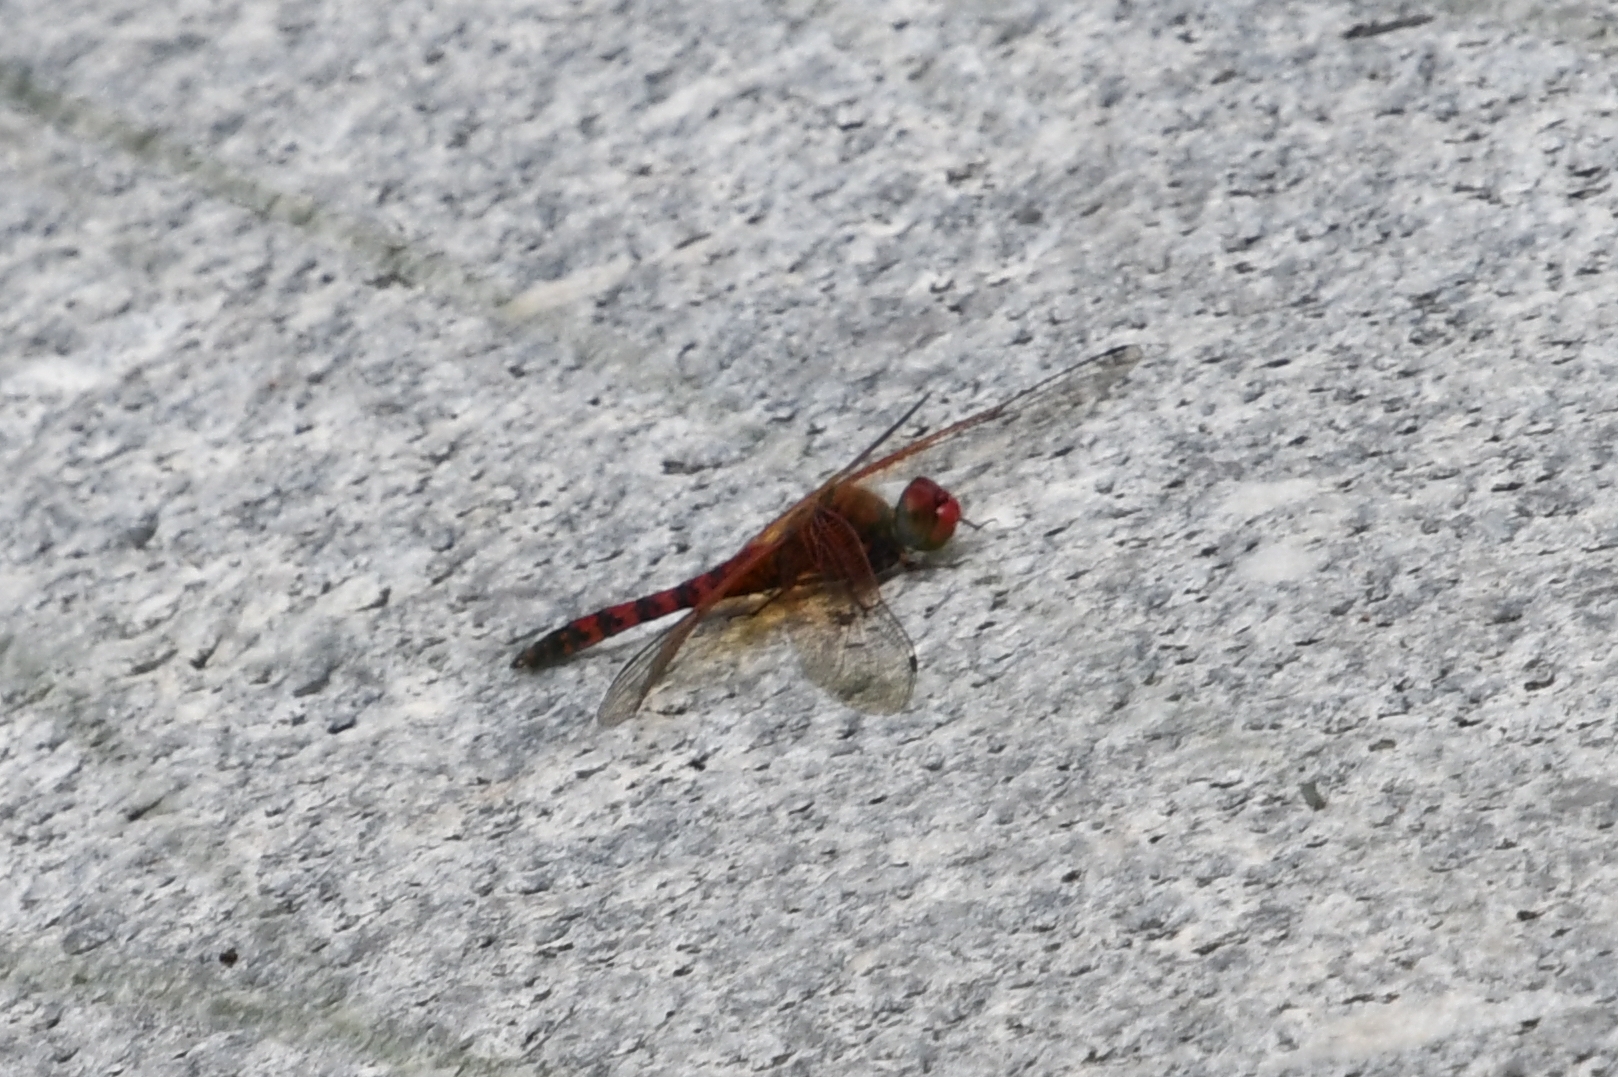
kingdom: Animalia
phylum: Arthropoda
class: Insecta
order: Odonata
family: Libellulidae
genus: Paltothemis
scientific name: Paltothemis lineatipes
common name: Red rock skimmer
